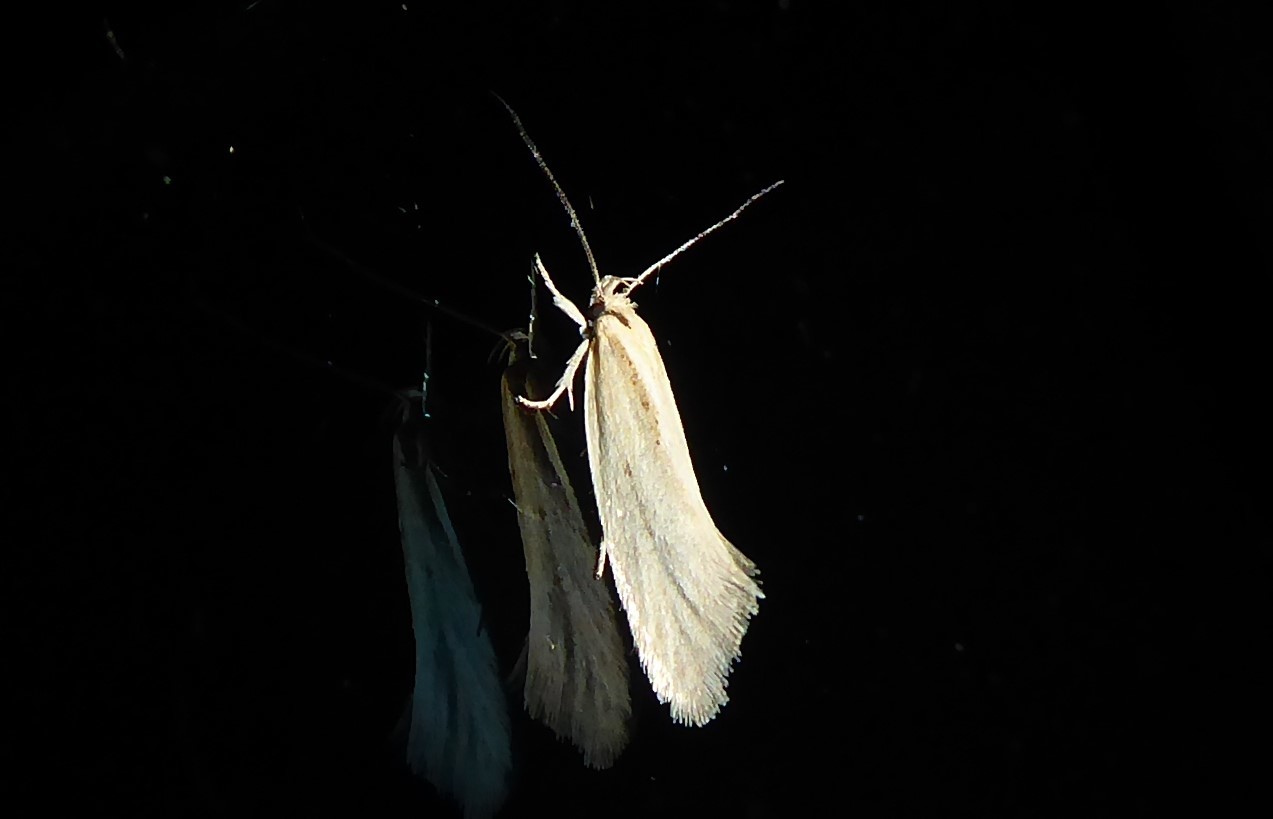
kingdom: Animalia
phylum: Arthropoda
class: Insecta
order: Lepidoptera
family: Oecophoridae
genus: Tingena
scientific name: Tingena chloradelpha
